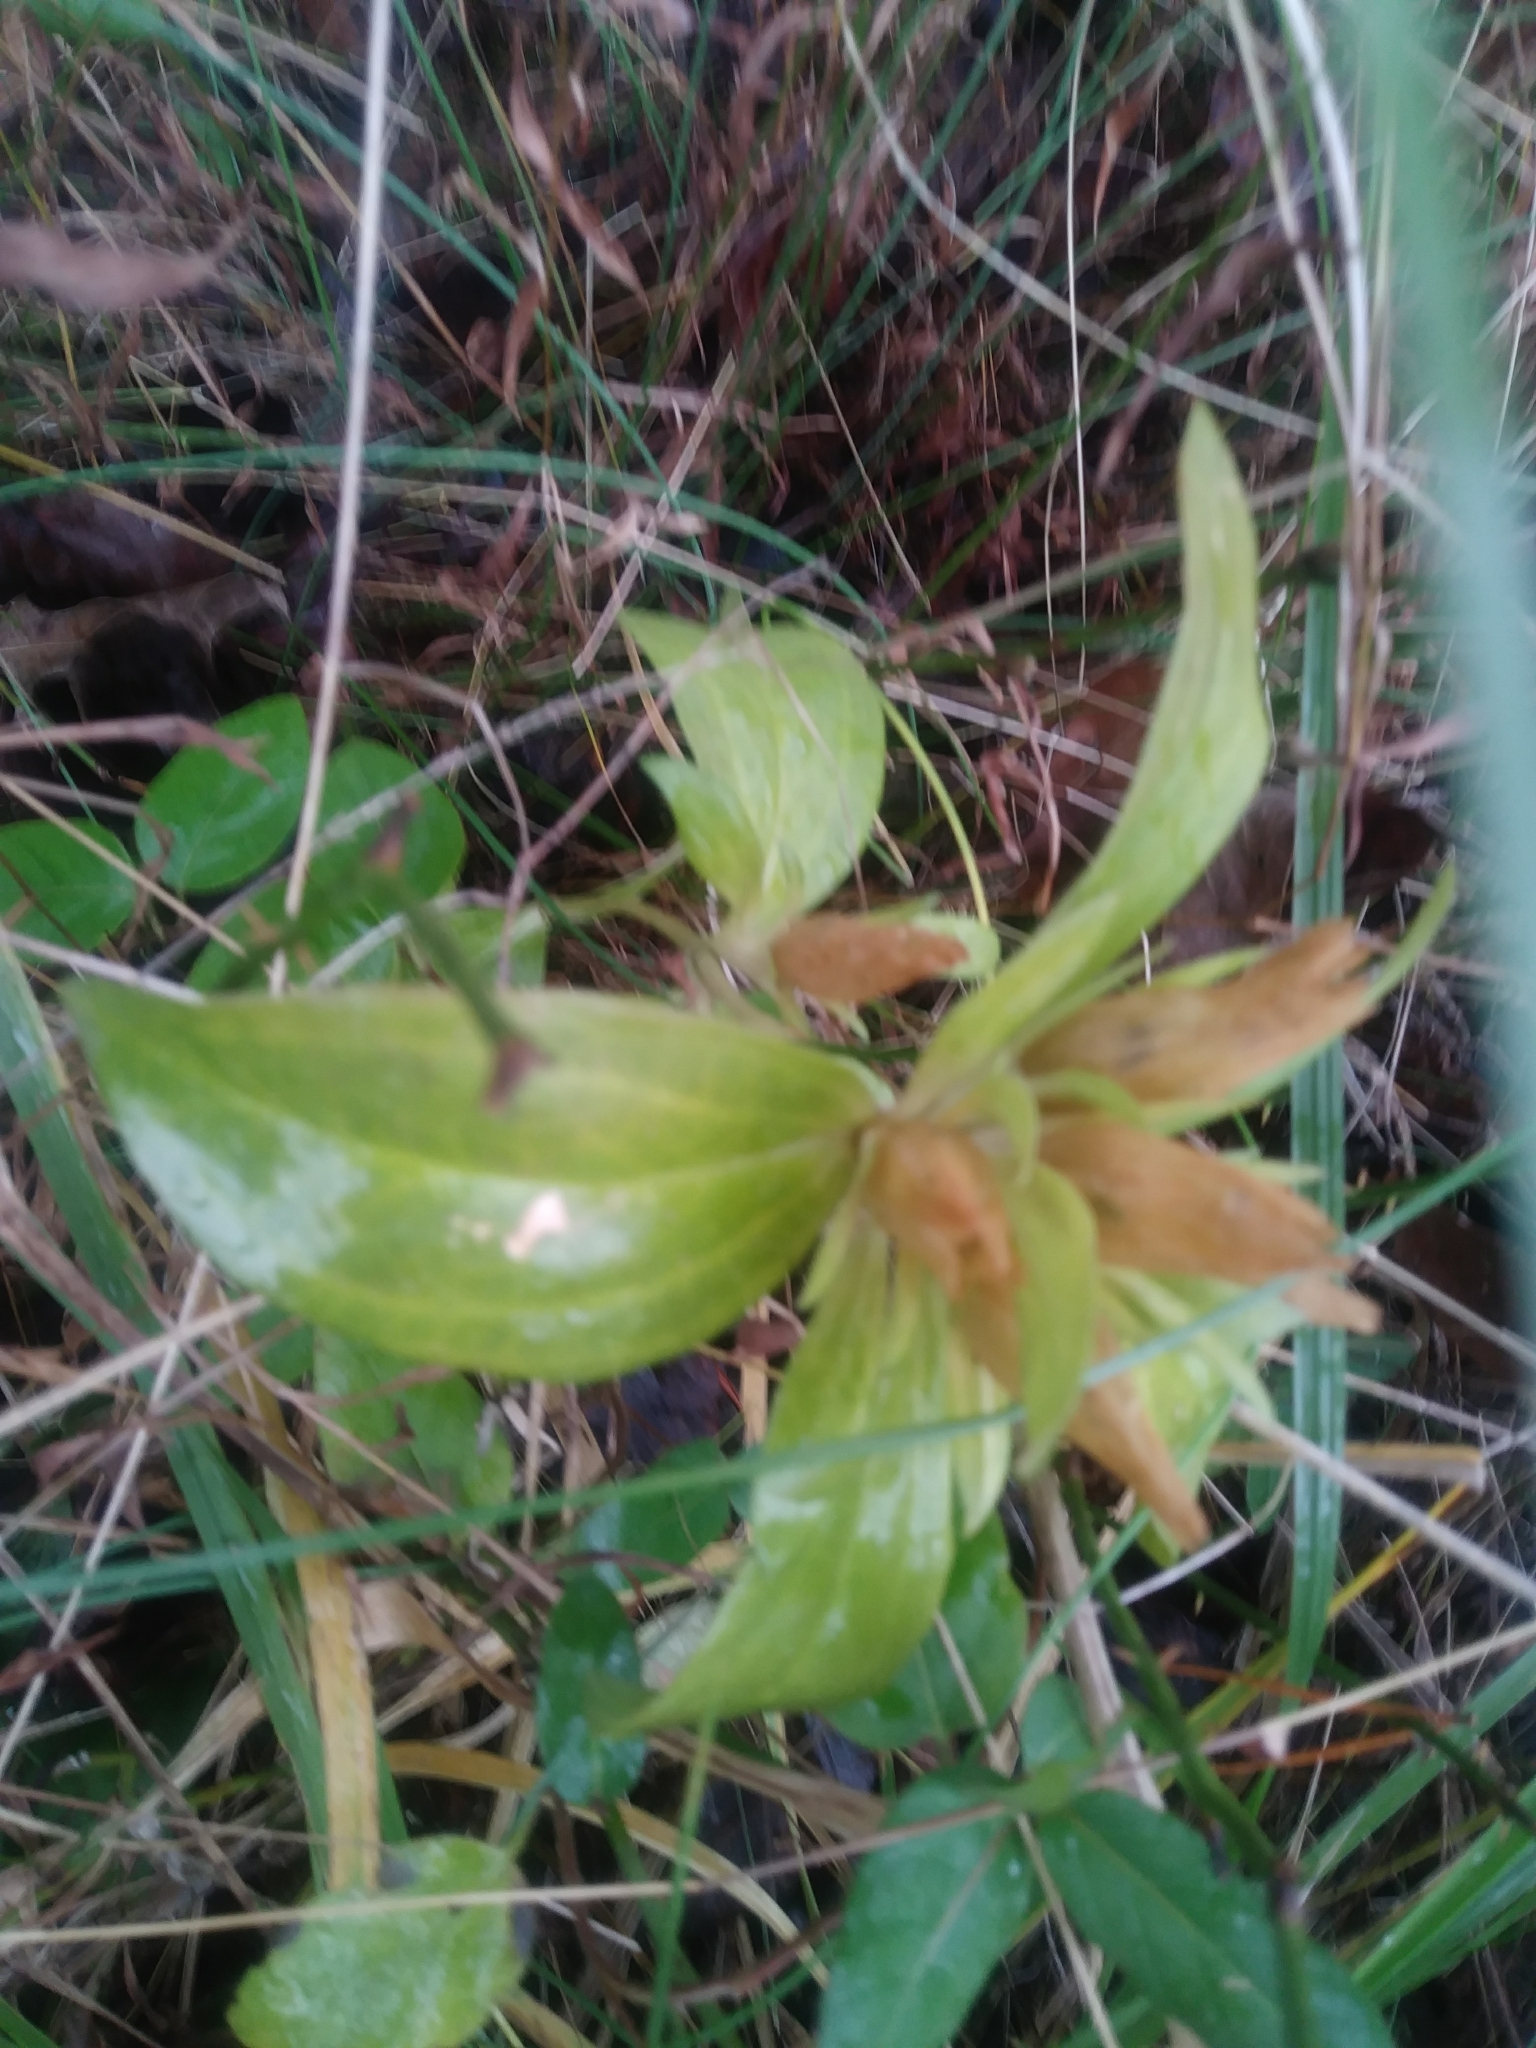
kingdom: Plantae
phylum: Tracheophyta
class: Magnoliopsida
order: Gentianales
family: Gentianaceae
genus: Gentiana
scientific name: Gentiana villosa
